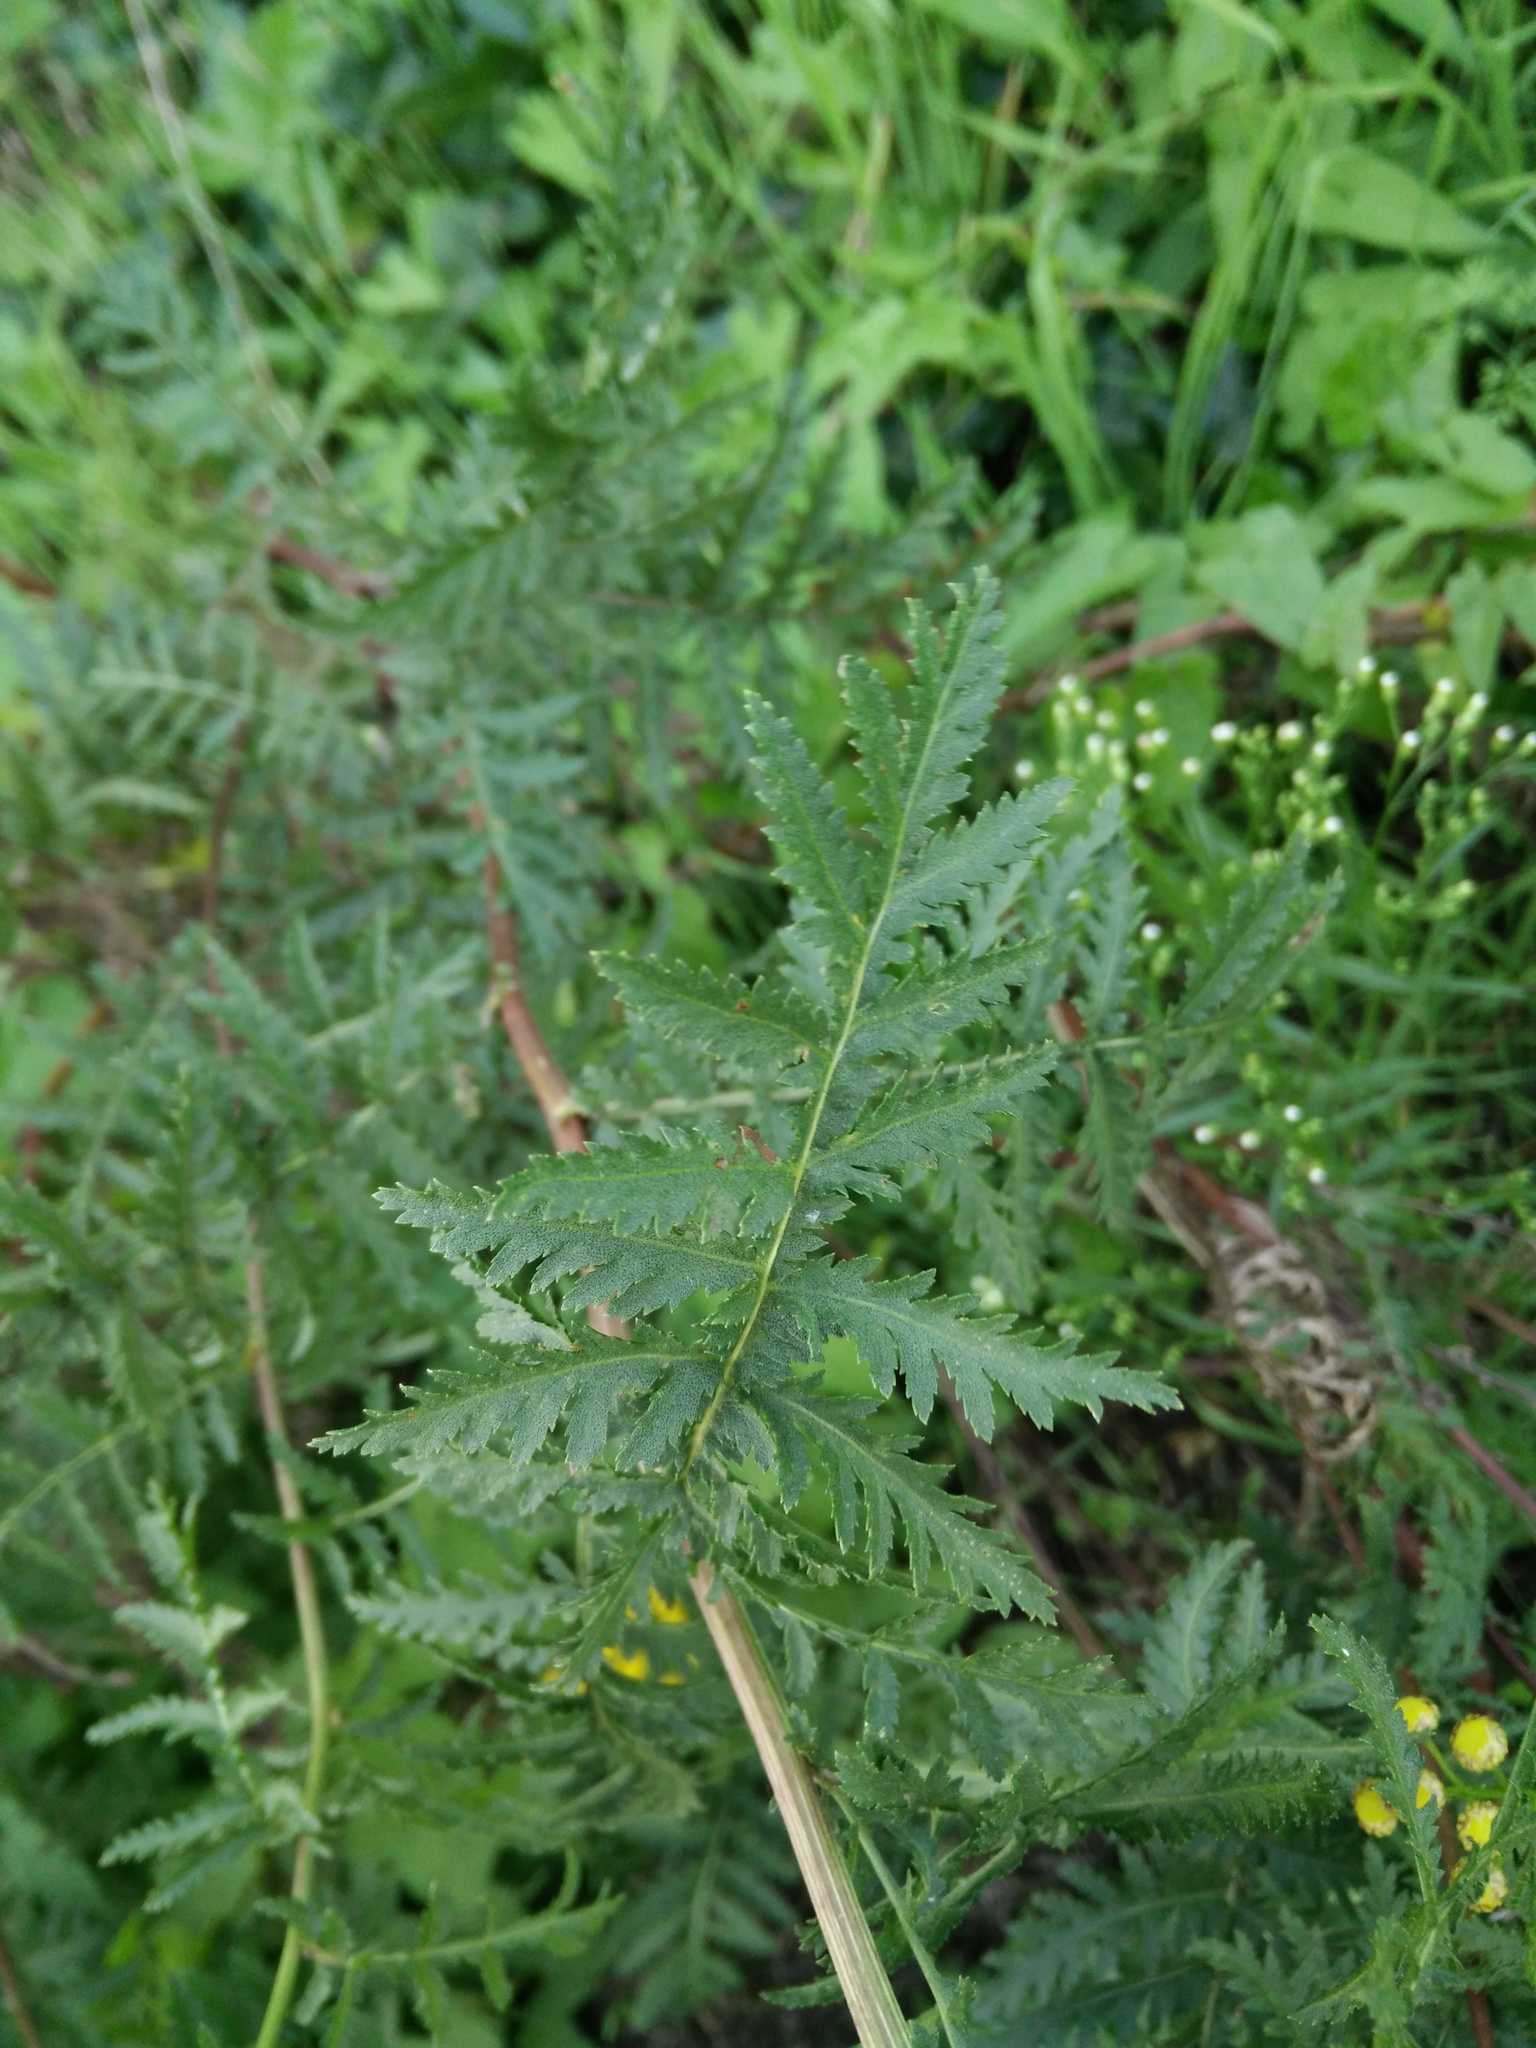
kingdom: Plantae
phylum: Tracheophyta
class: Magnoliopsida
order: Asterales
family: Asteraceae
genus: Tanacetum
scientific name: Tanacetum vulgare
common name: Common tansy
